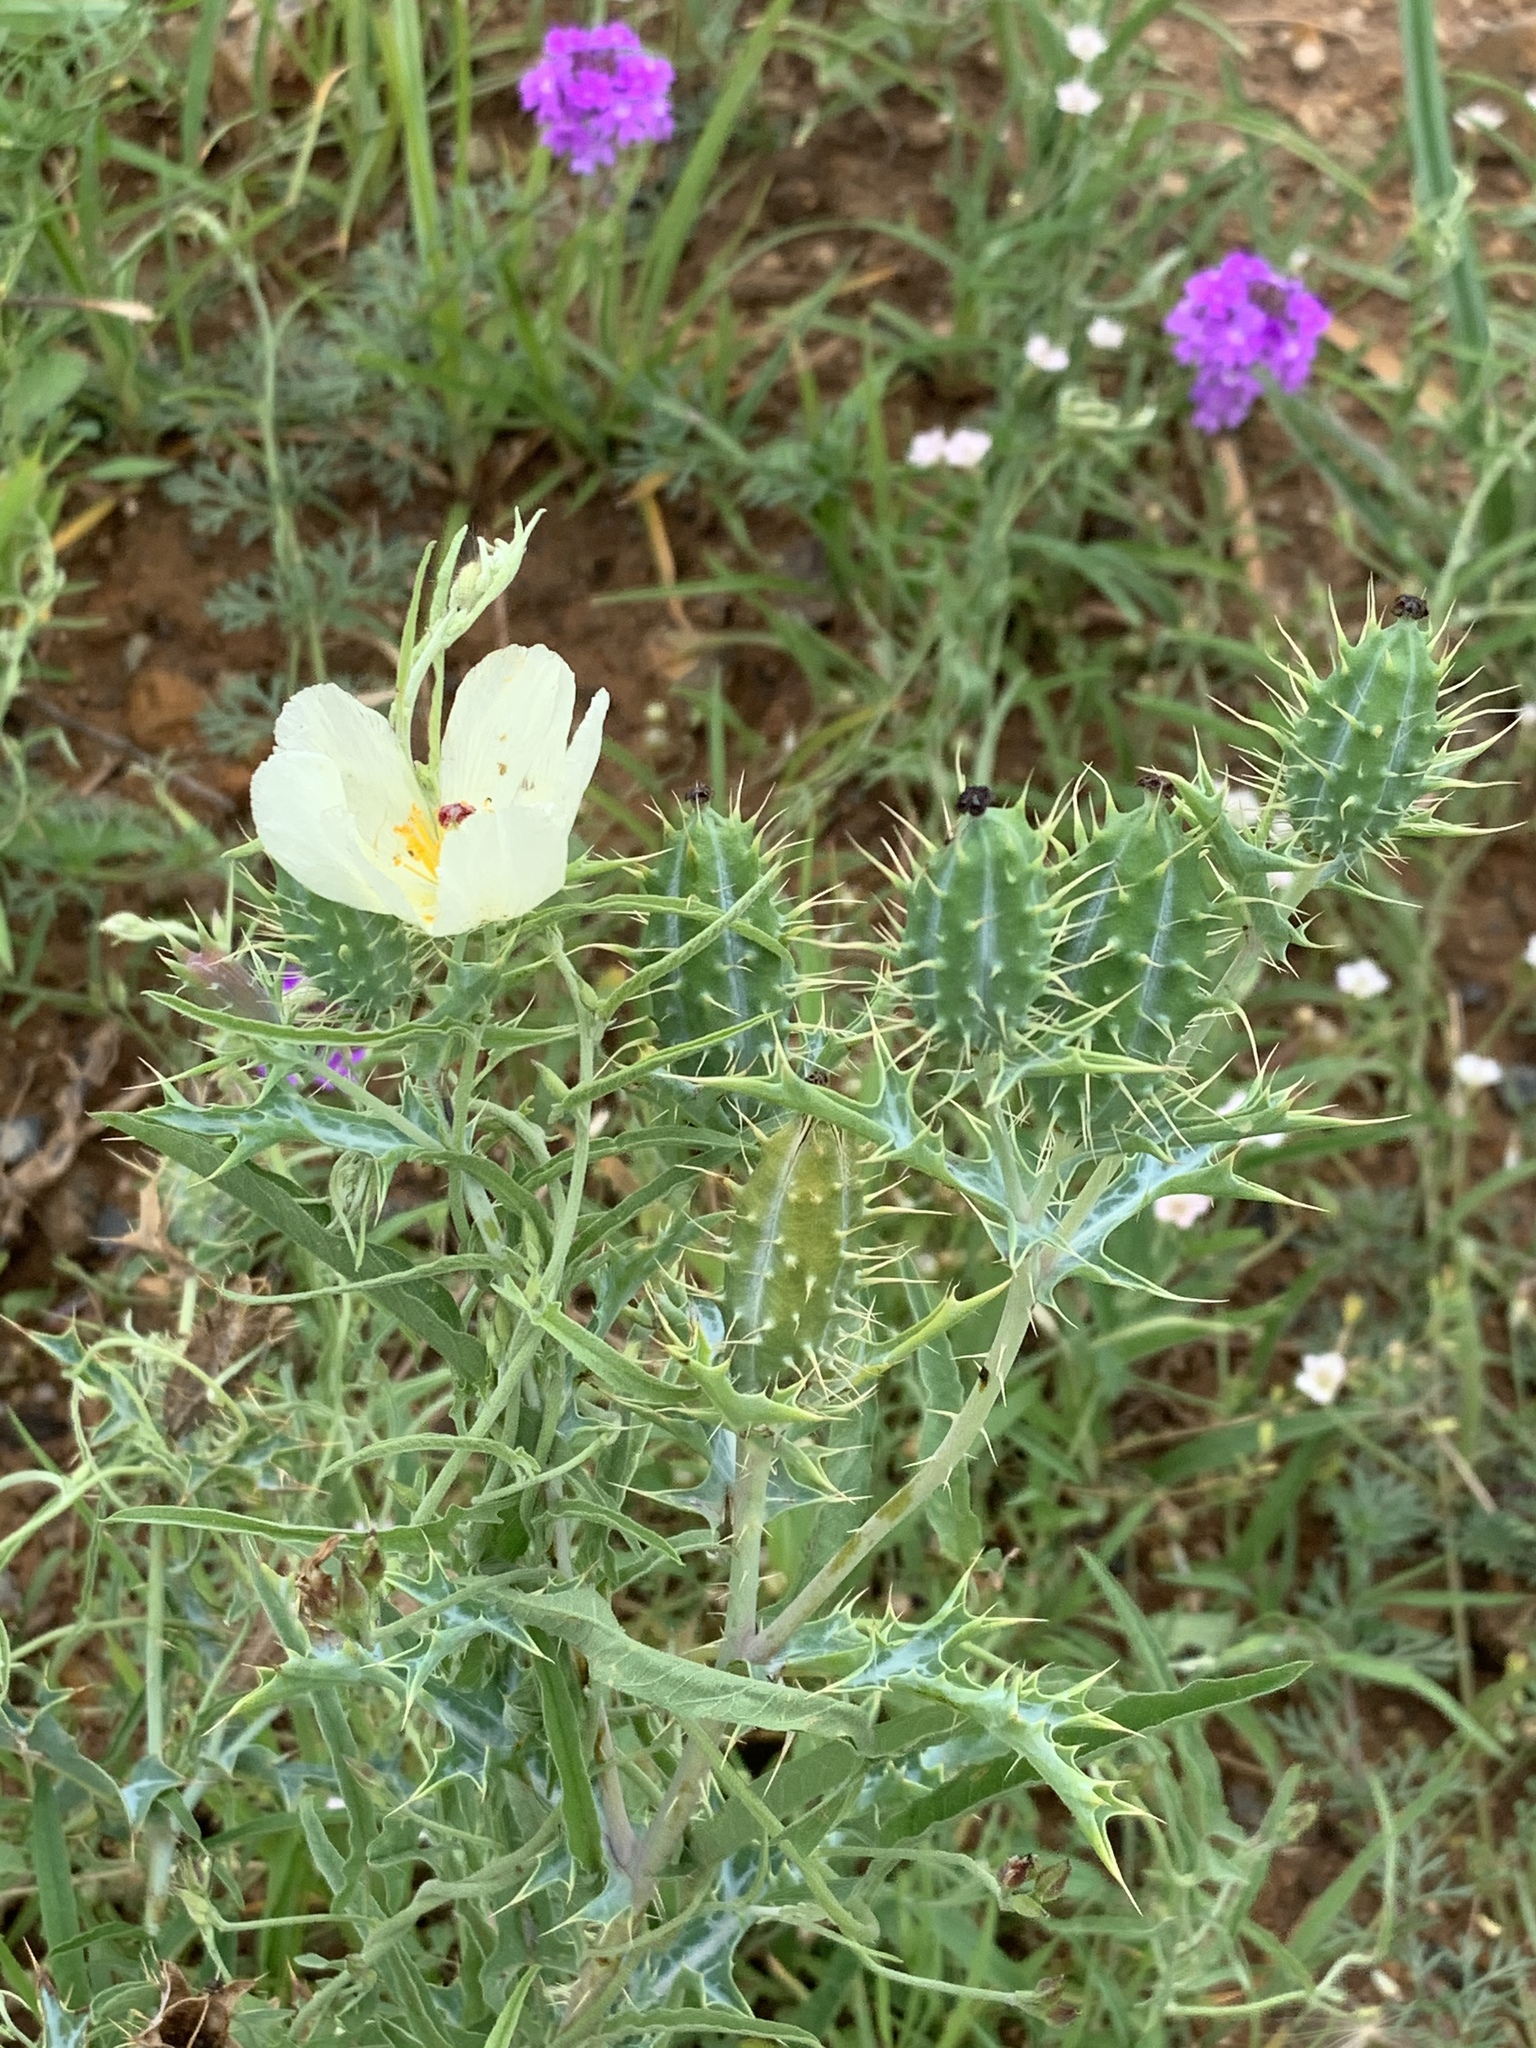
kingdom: Plantae
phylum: Tracheophyta
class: Magnoliopsida
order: Ranunculales
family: Papaveraceae
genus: Argemone
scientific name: Argemone ochroleuca
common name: White-flower mexican-poppy
